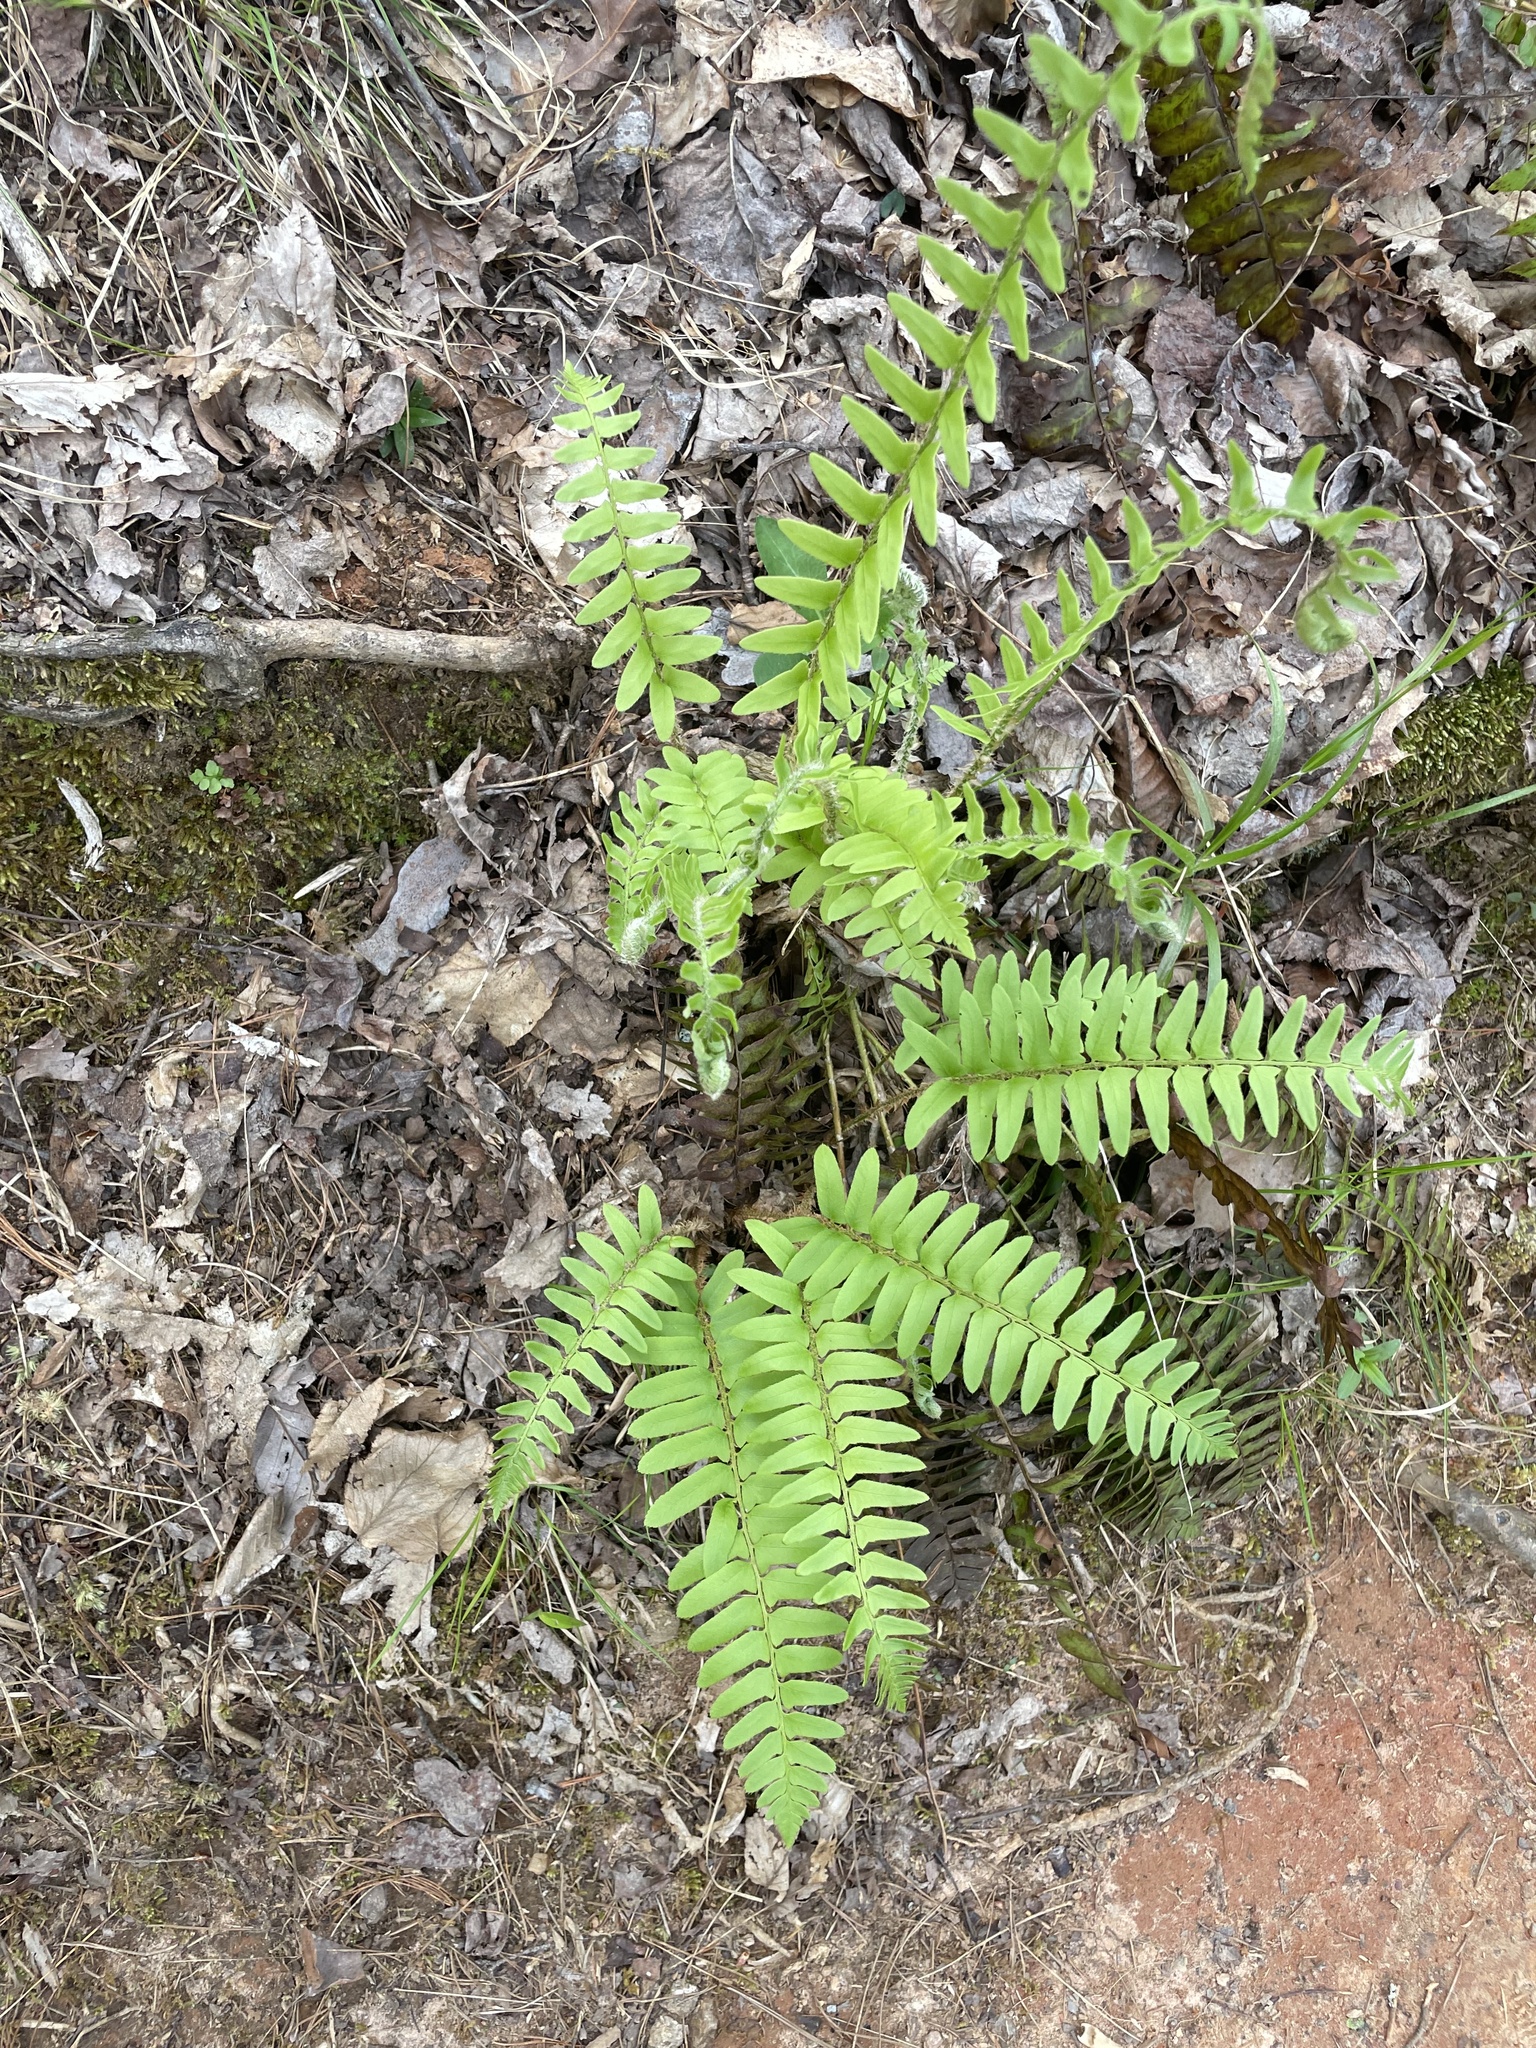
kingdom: Plantae
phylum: Tracheophyta
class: Polypodiopsida
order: Polypodiales
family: Dryopteridaceae
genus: Polystichum
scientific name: Polystichum acrostichoides
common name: Christmas fern
